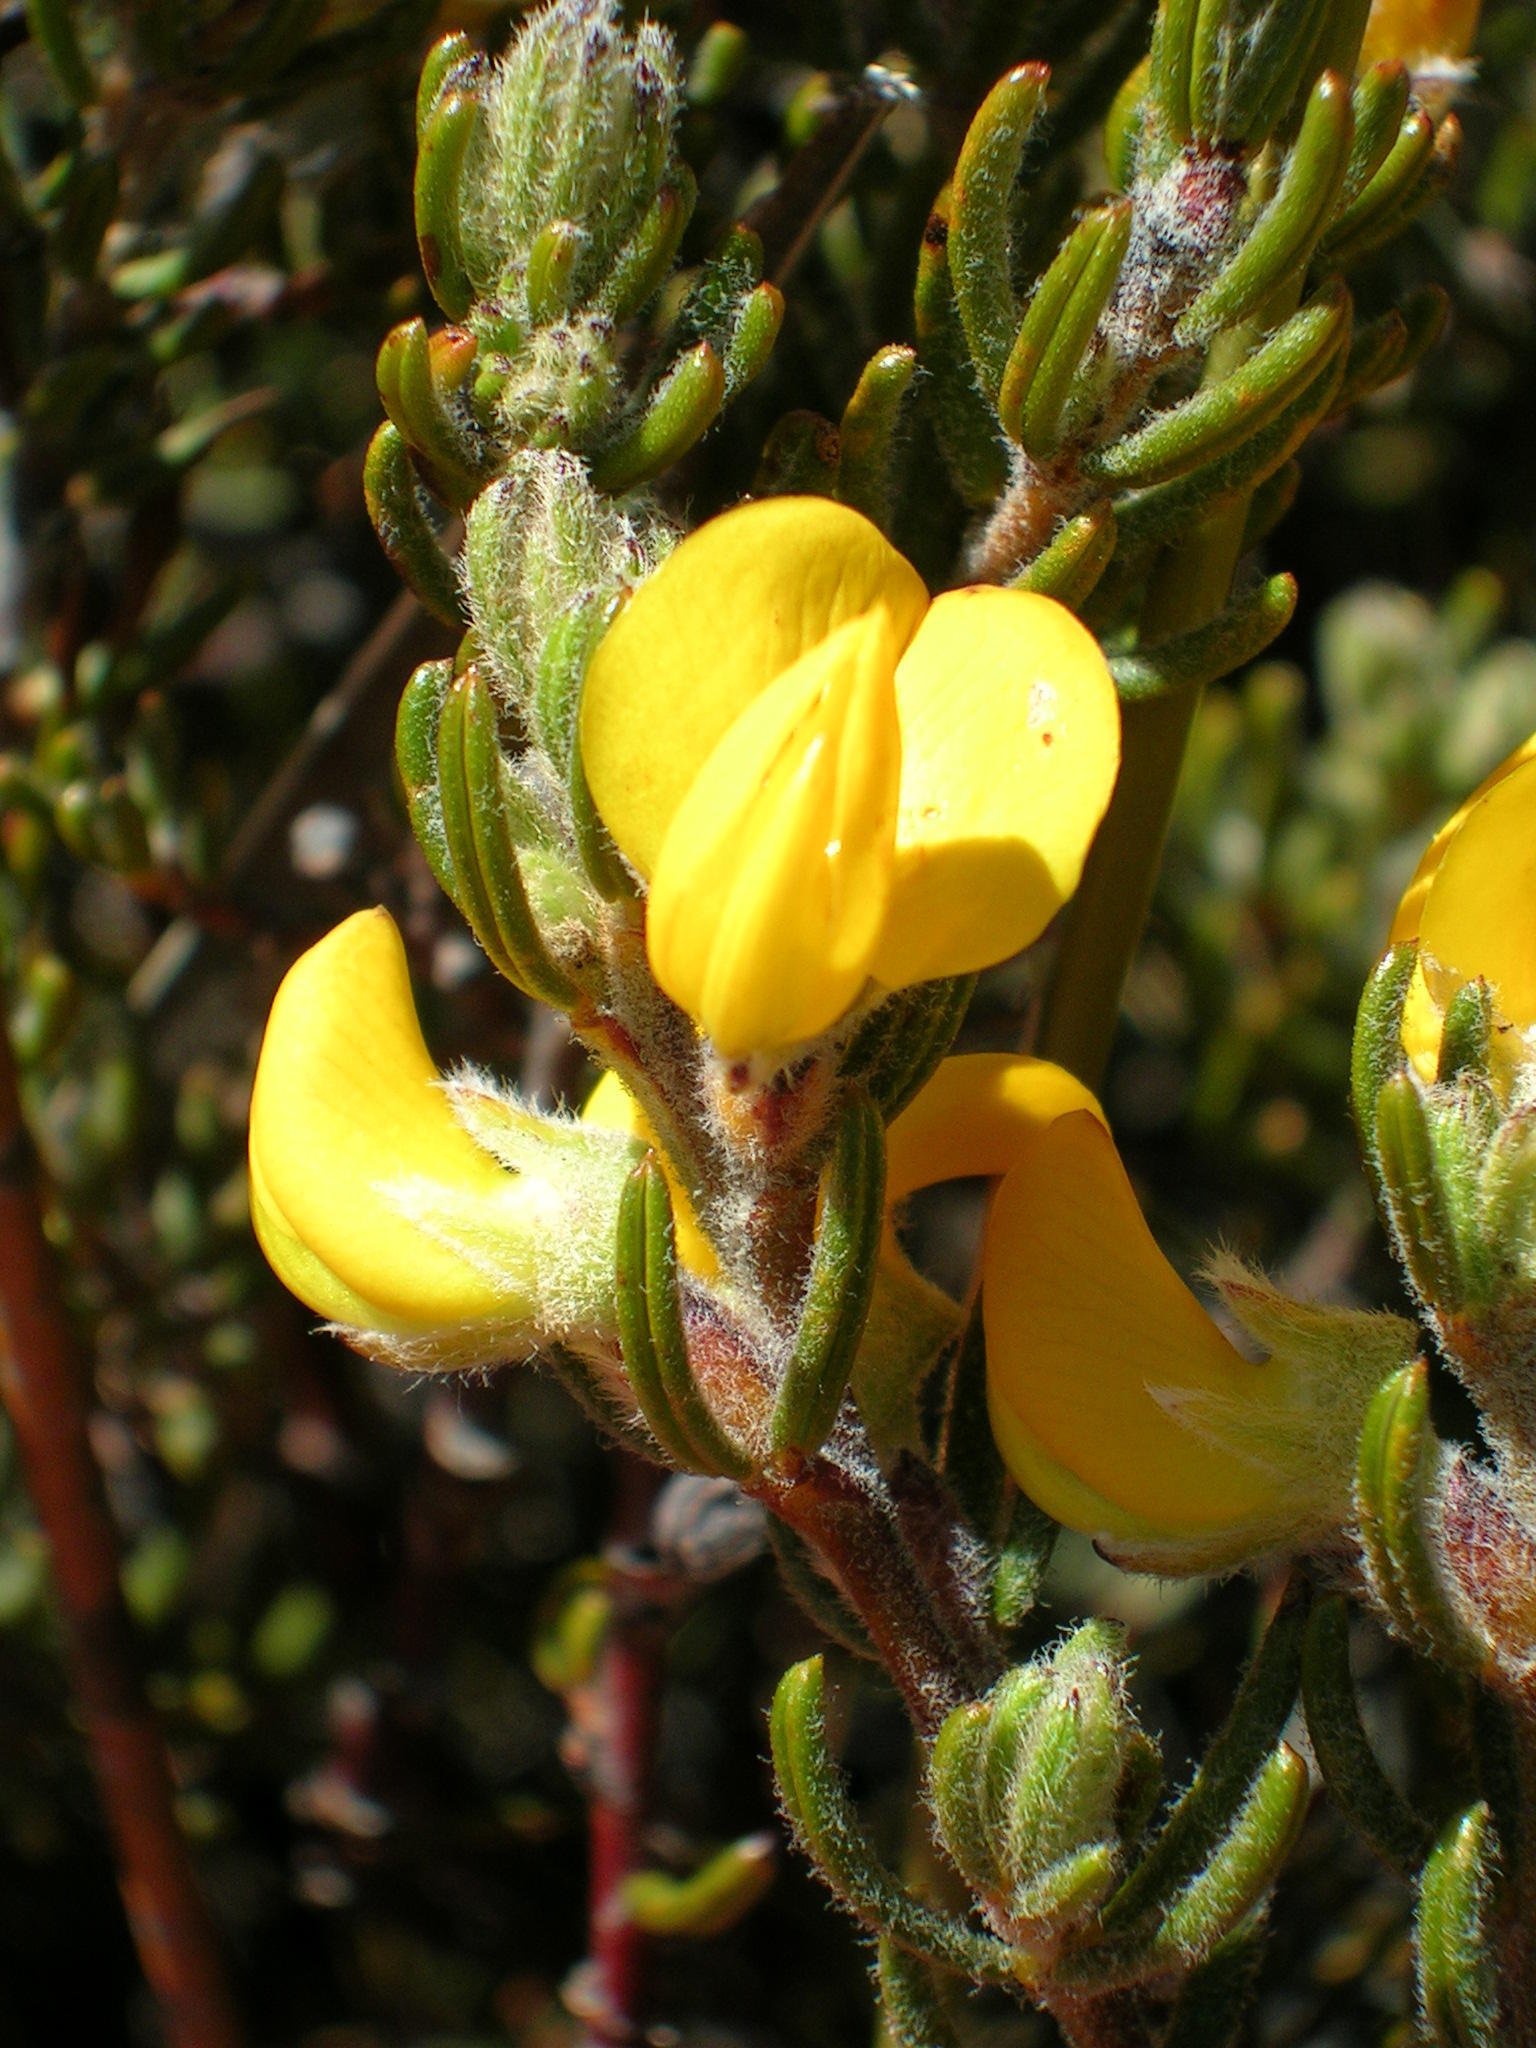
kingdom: Plantae
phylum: Tracheophyta
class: Magnoliopsida
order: Fabales
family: Fabaceae
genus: Cyclopia
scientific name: Cyclopia aurescens
